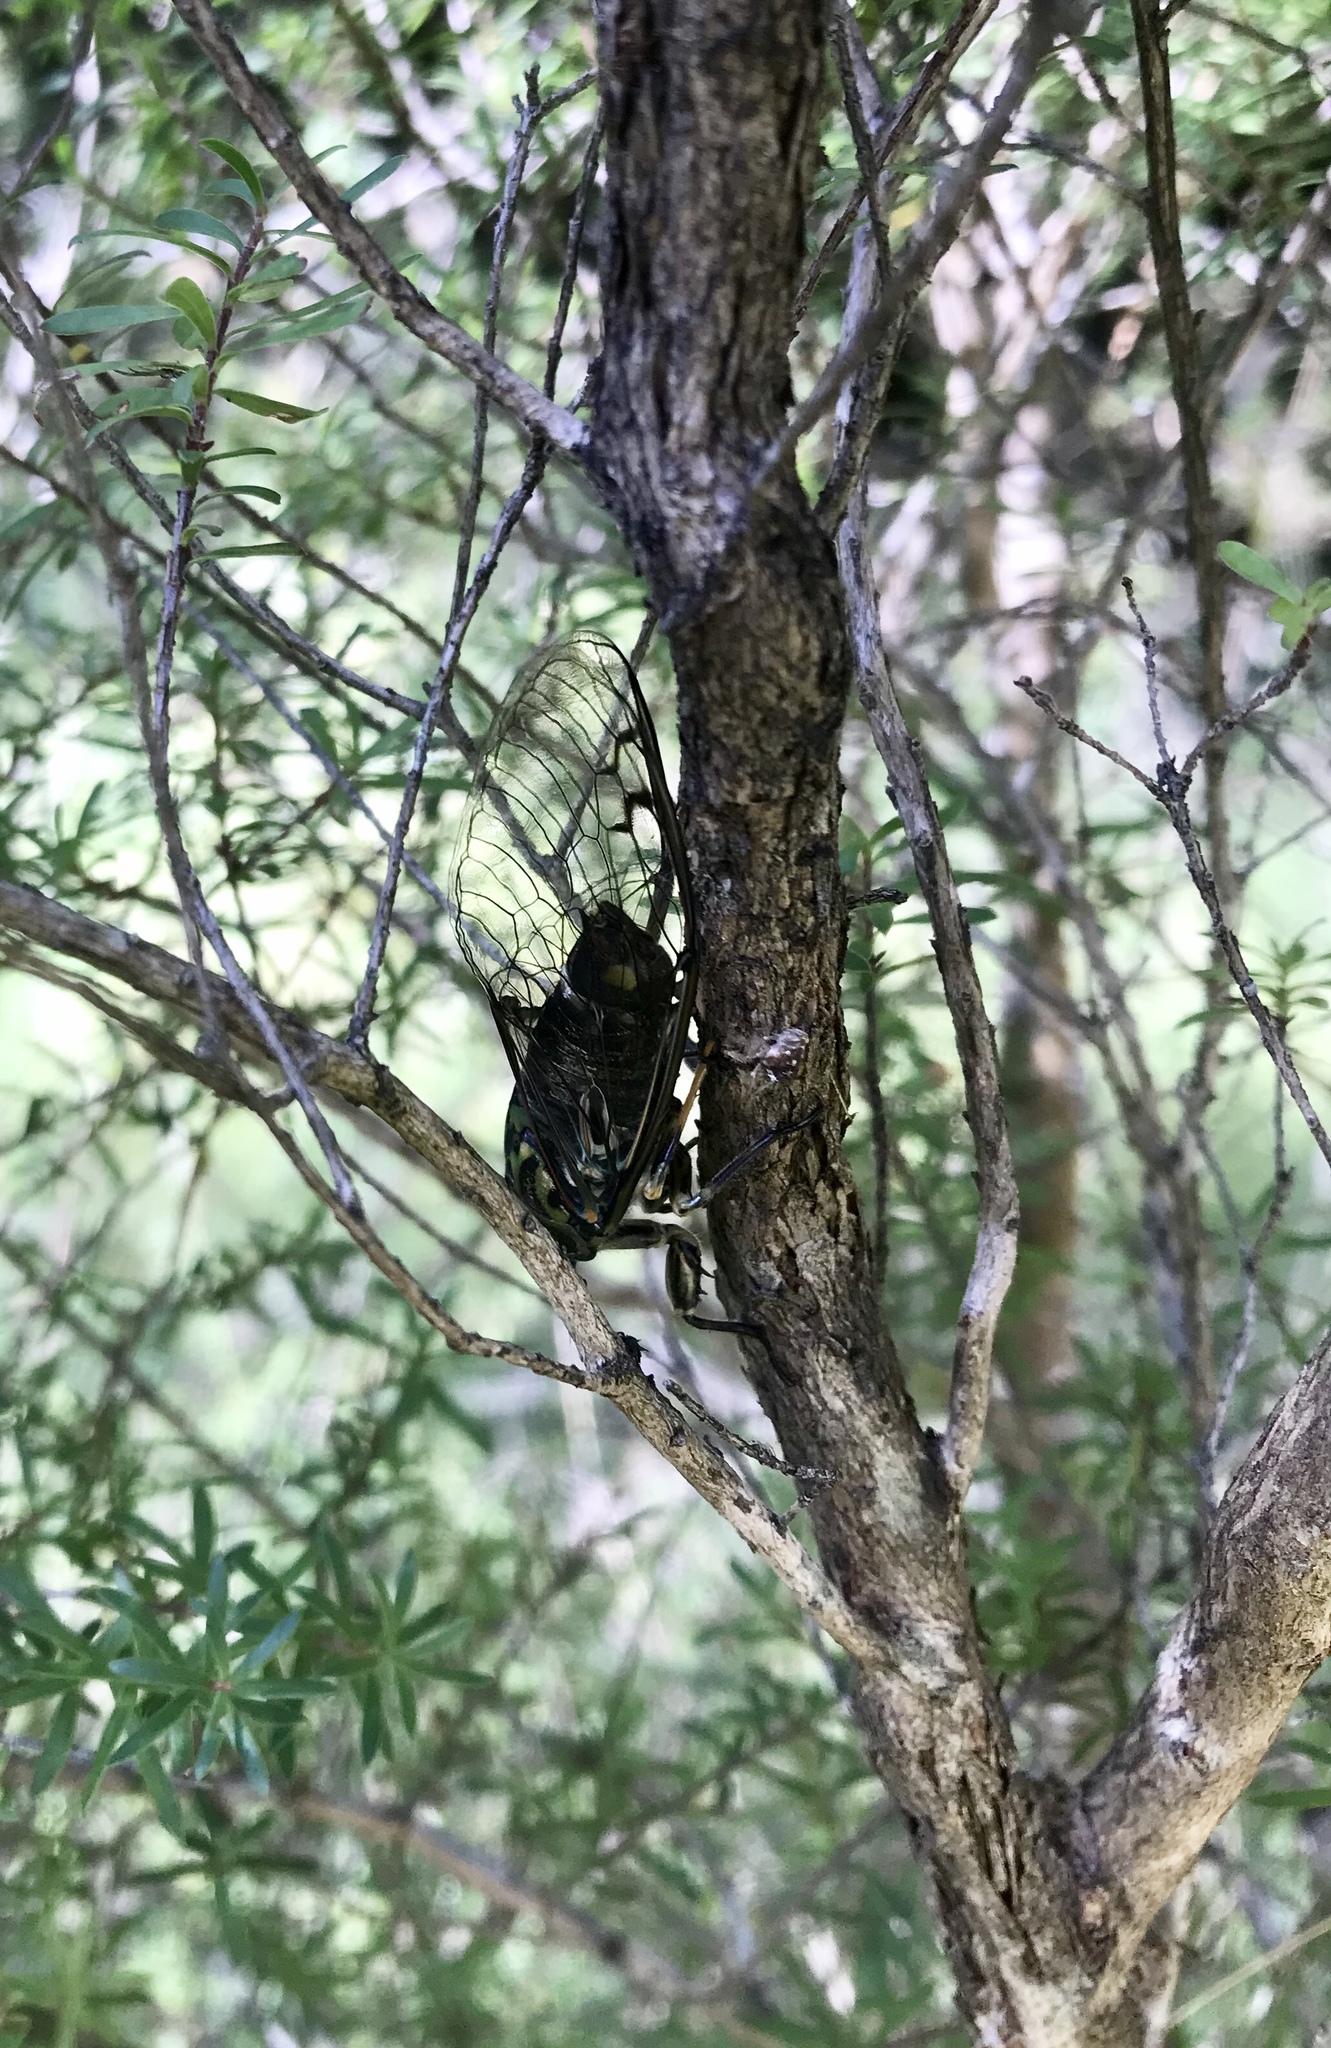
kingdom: Animalia
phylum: Arthropoda
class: Insecta
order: Hemiptera
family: Cicadidae
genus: Amphipsalta
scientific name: Amphipsalta zelandica
